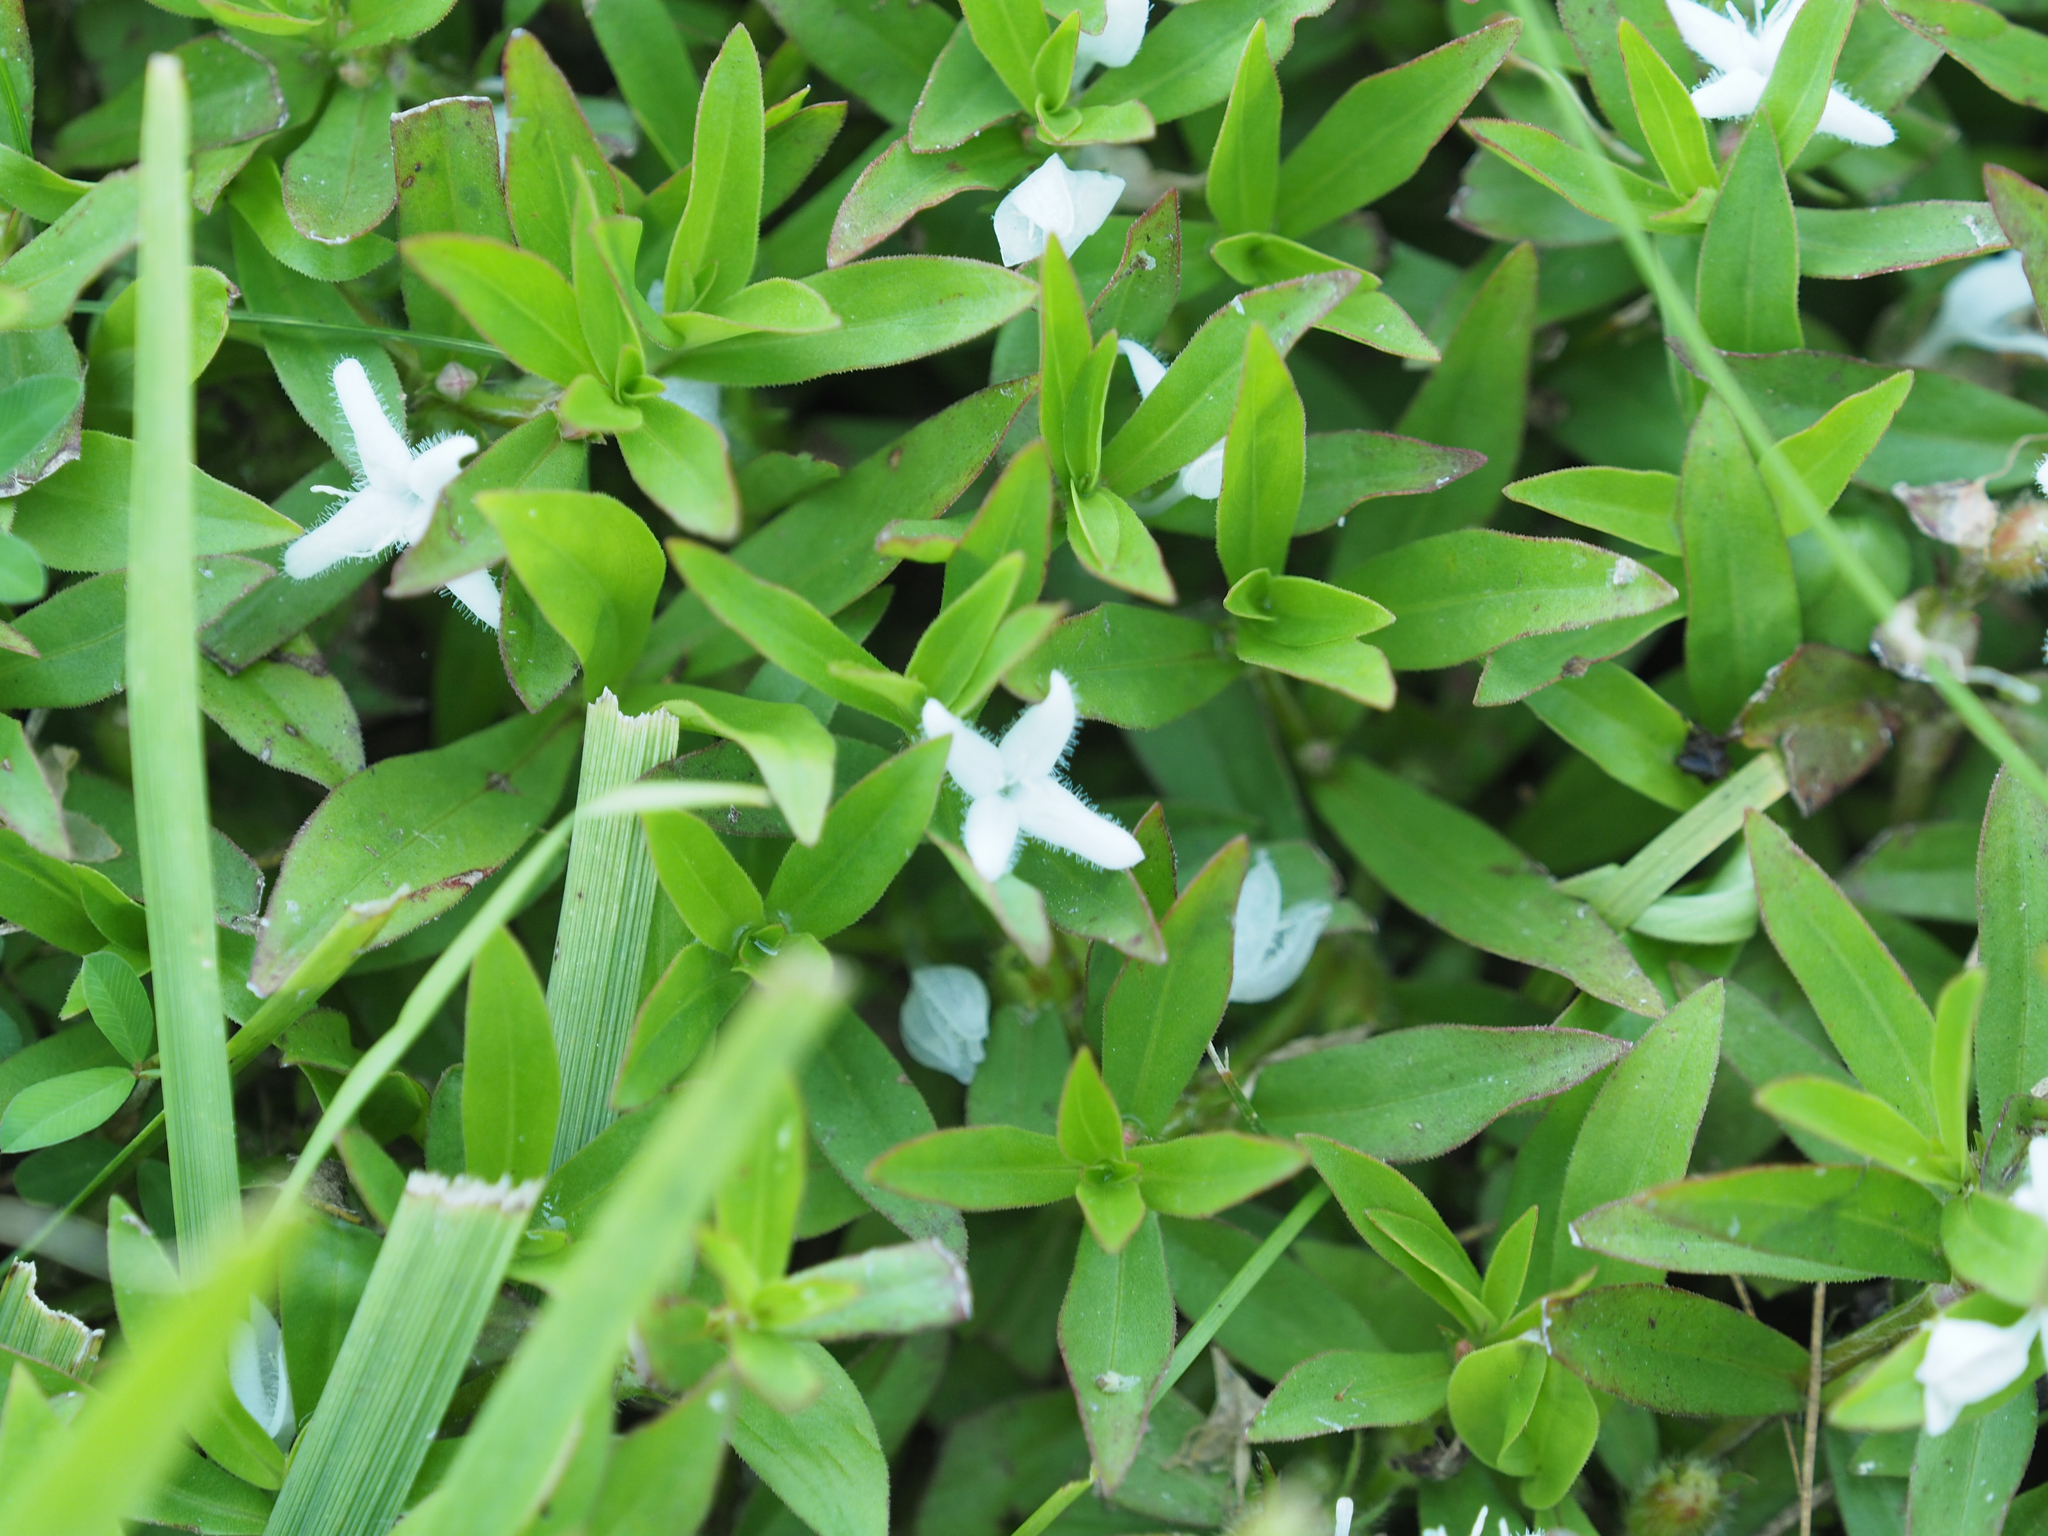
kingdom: Plantae
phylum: Tracheophyta
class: Magnoliopsida
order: Gentianales
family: Rubiaceae
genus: Diodia
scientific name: Diodia virginiana
